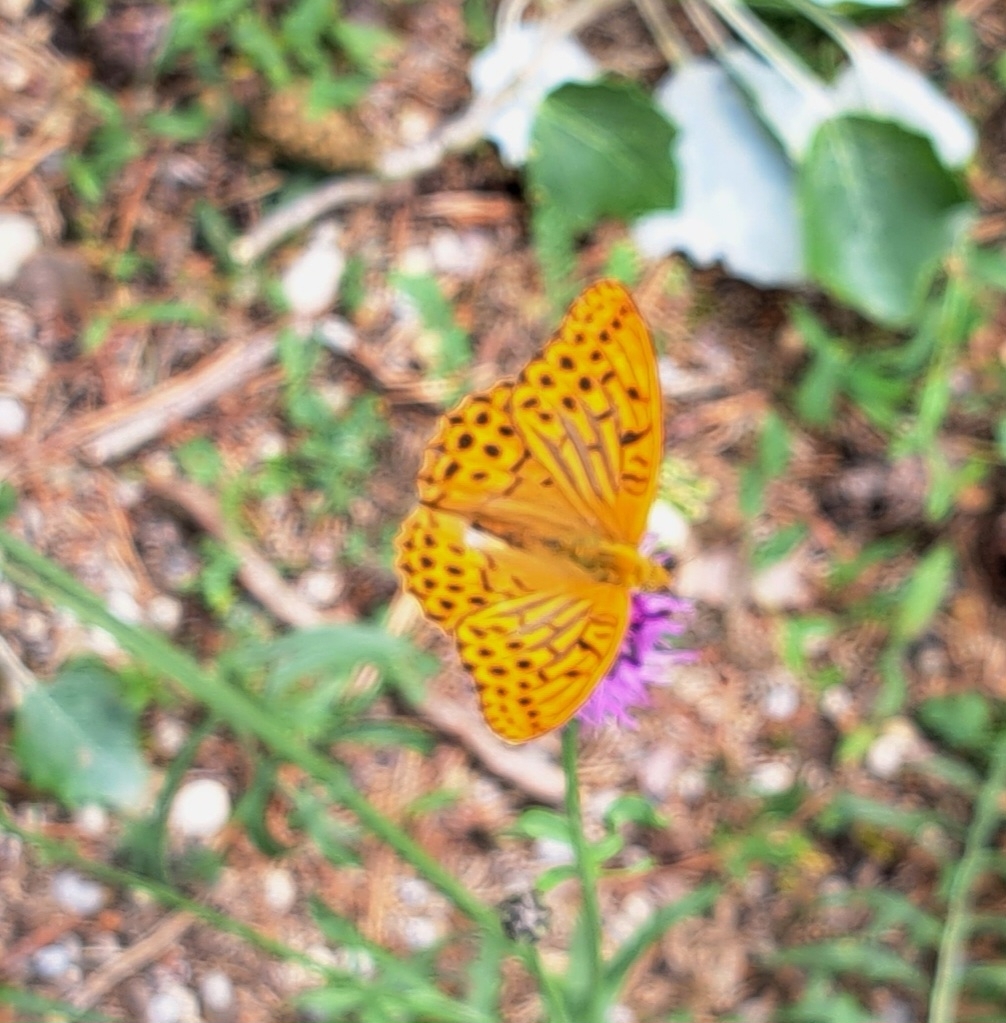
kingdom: Animalia
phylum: Arthropoda
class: Insecta
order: Lepidoptera
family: Nymphalidae
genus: Argynnis
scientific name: Argynnis paphia
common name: Silver-washed fritillary
